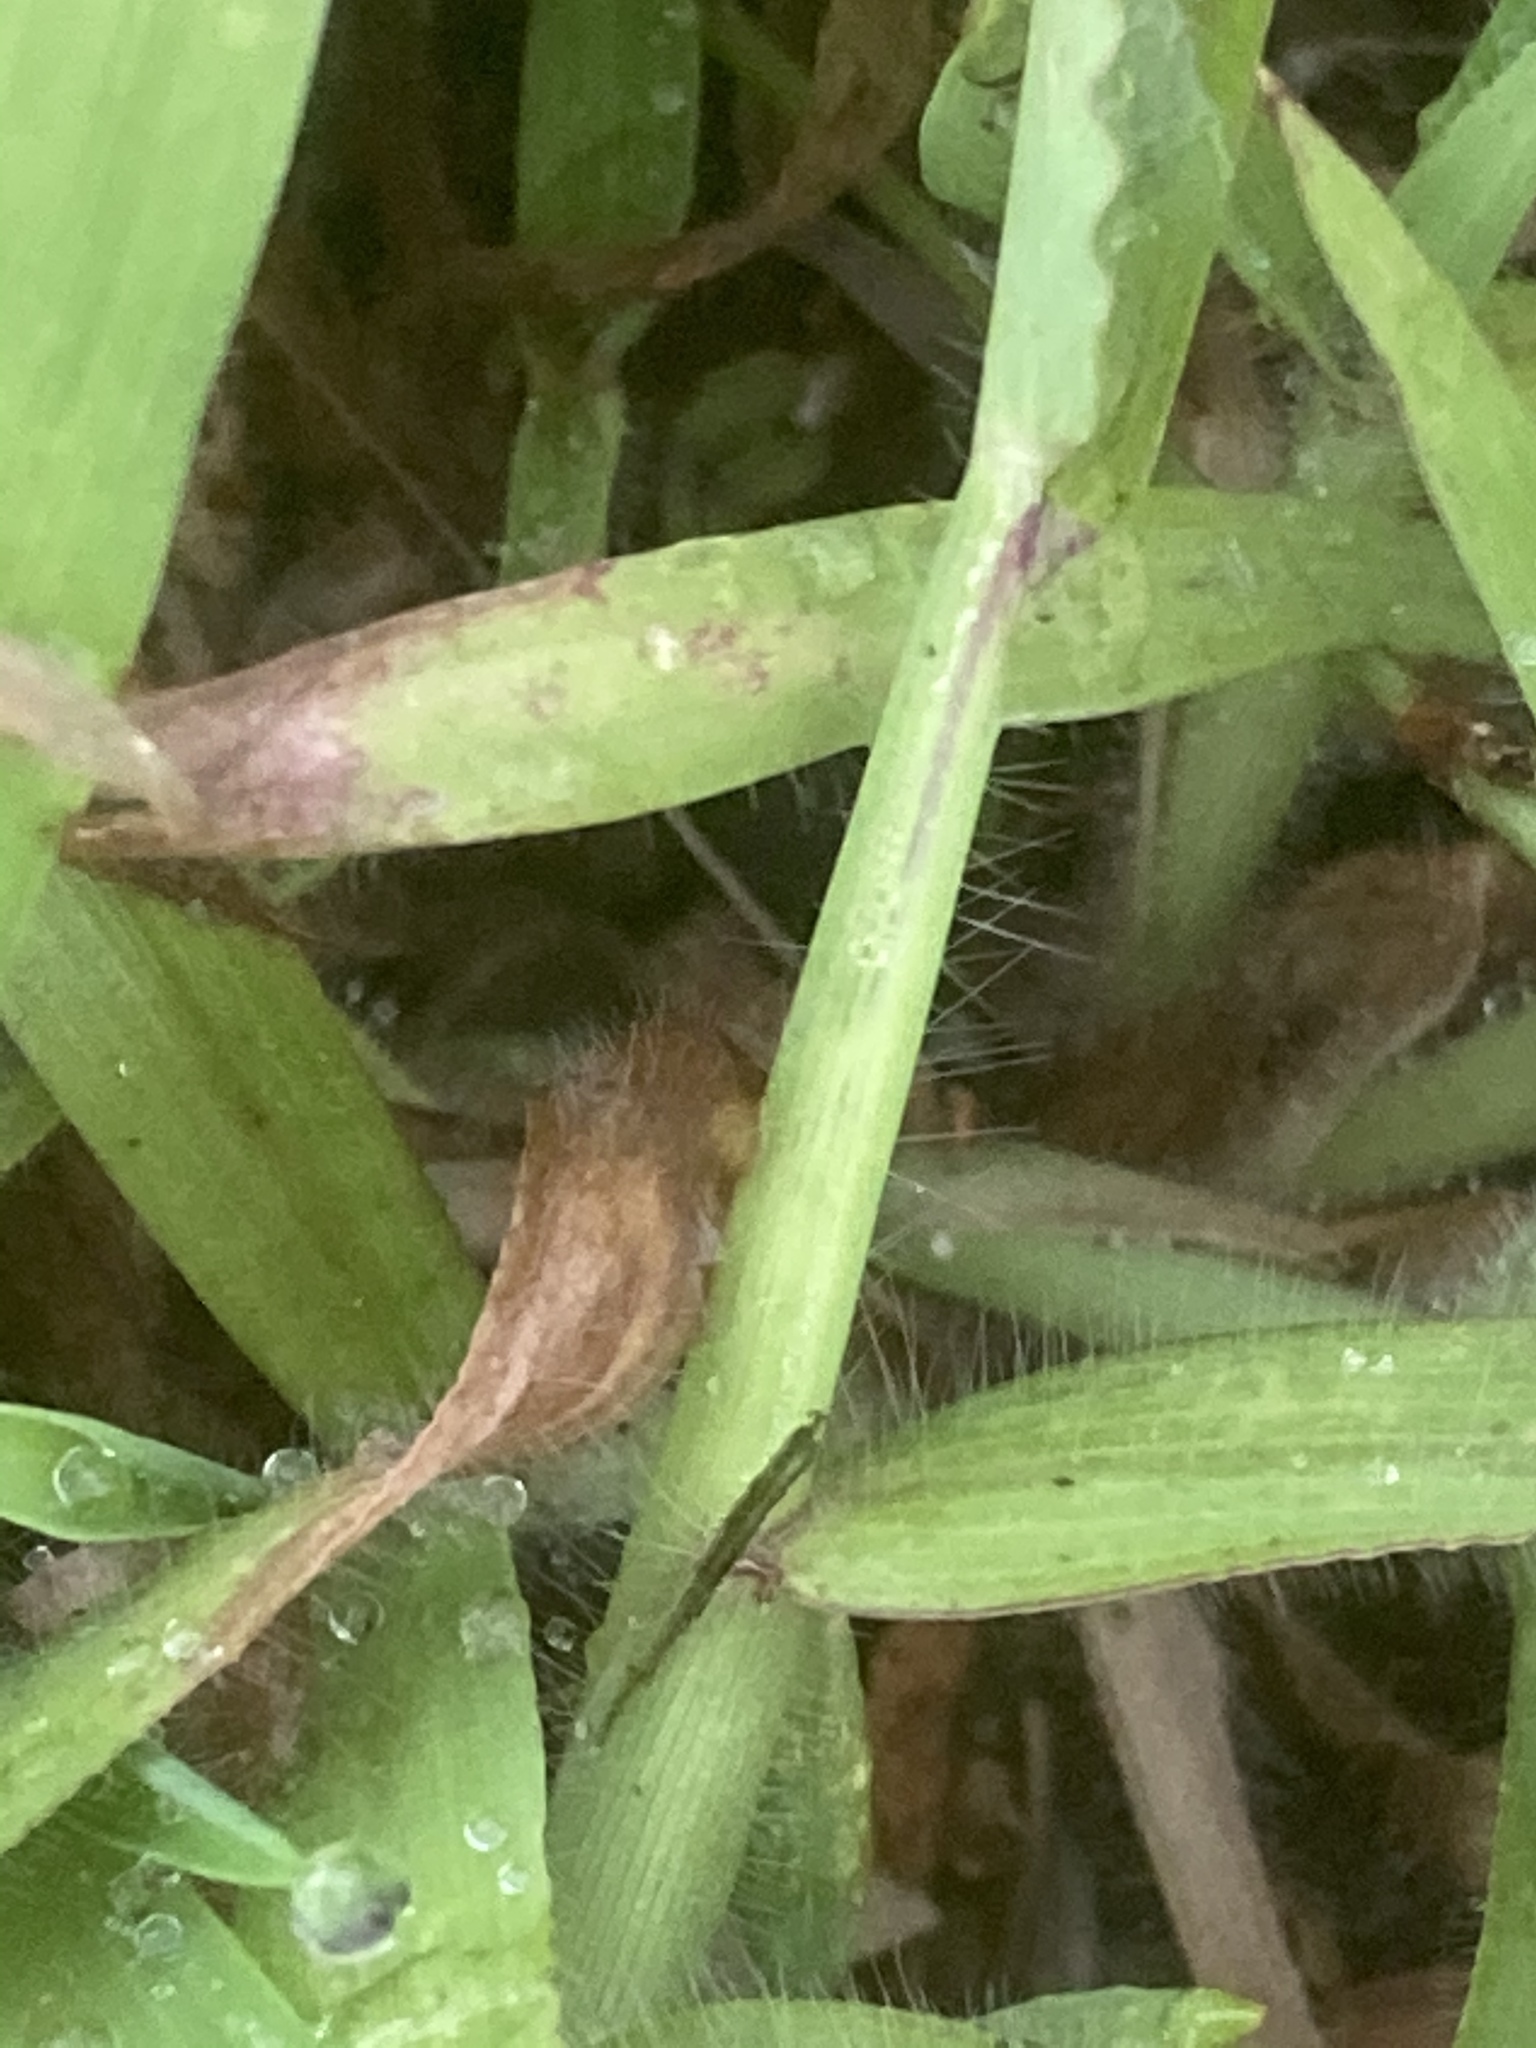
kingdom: Plantae
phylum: Tracheophyta
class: Liliopsida
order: Poales
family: Poaceae
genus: Digitaria
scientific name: Digitaria sanguinalis
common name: Hairy crabgrass
